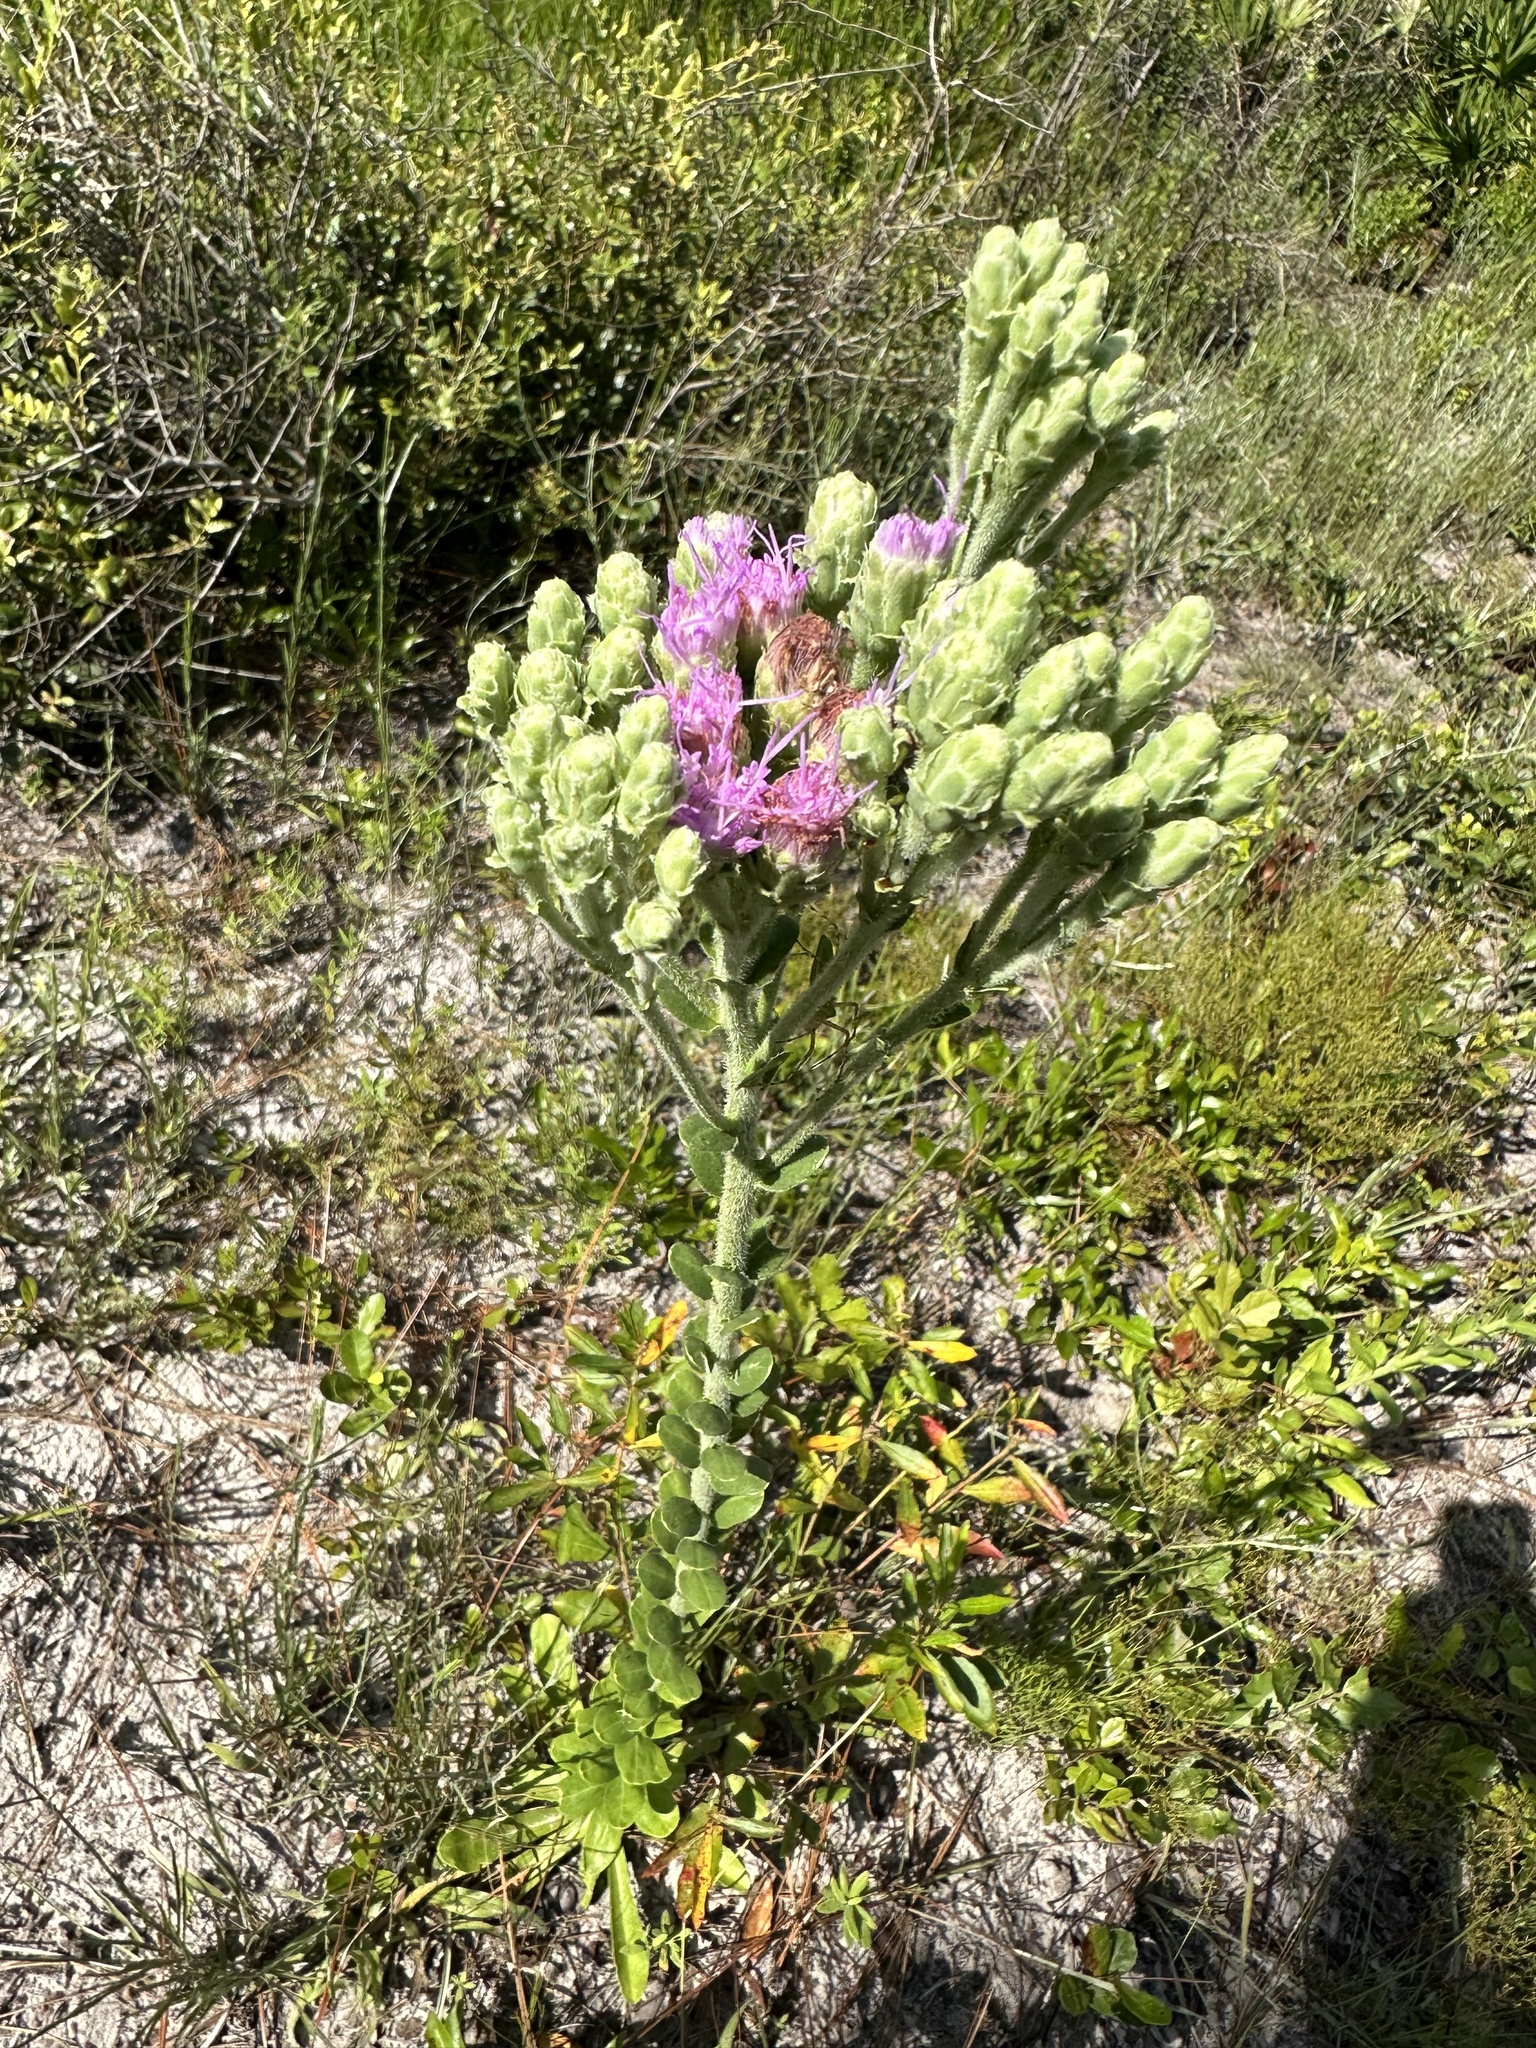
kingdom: Plantae
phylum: Tracheophyta
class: Magnoliopsida
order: Asterales
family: Asteraceae
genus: Carphephorus
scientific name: Carphephorus corymbosus
